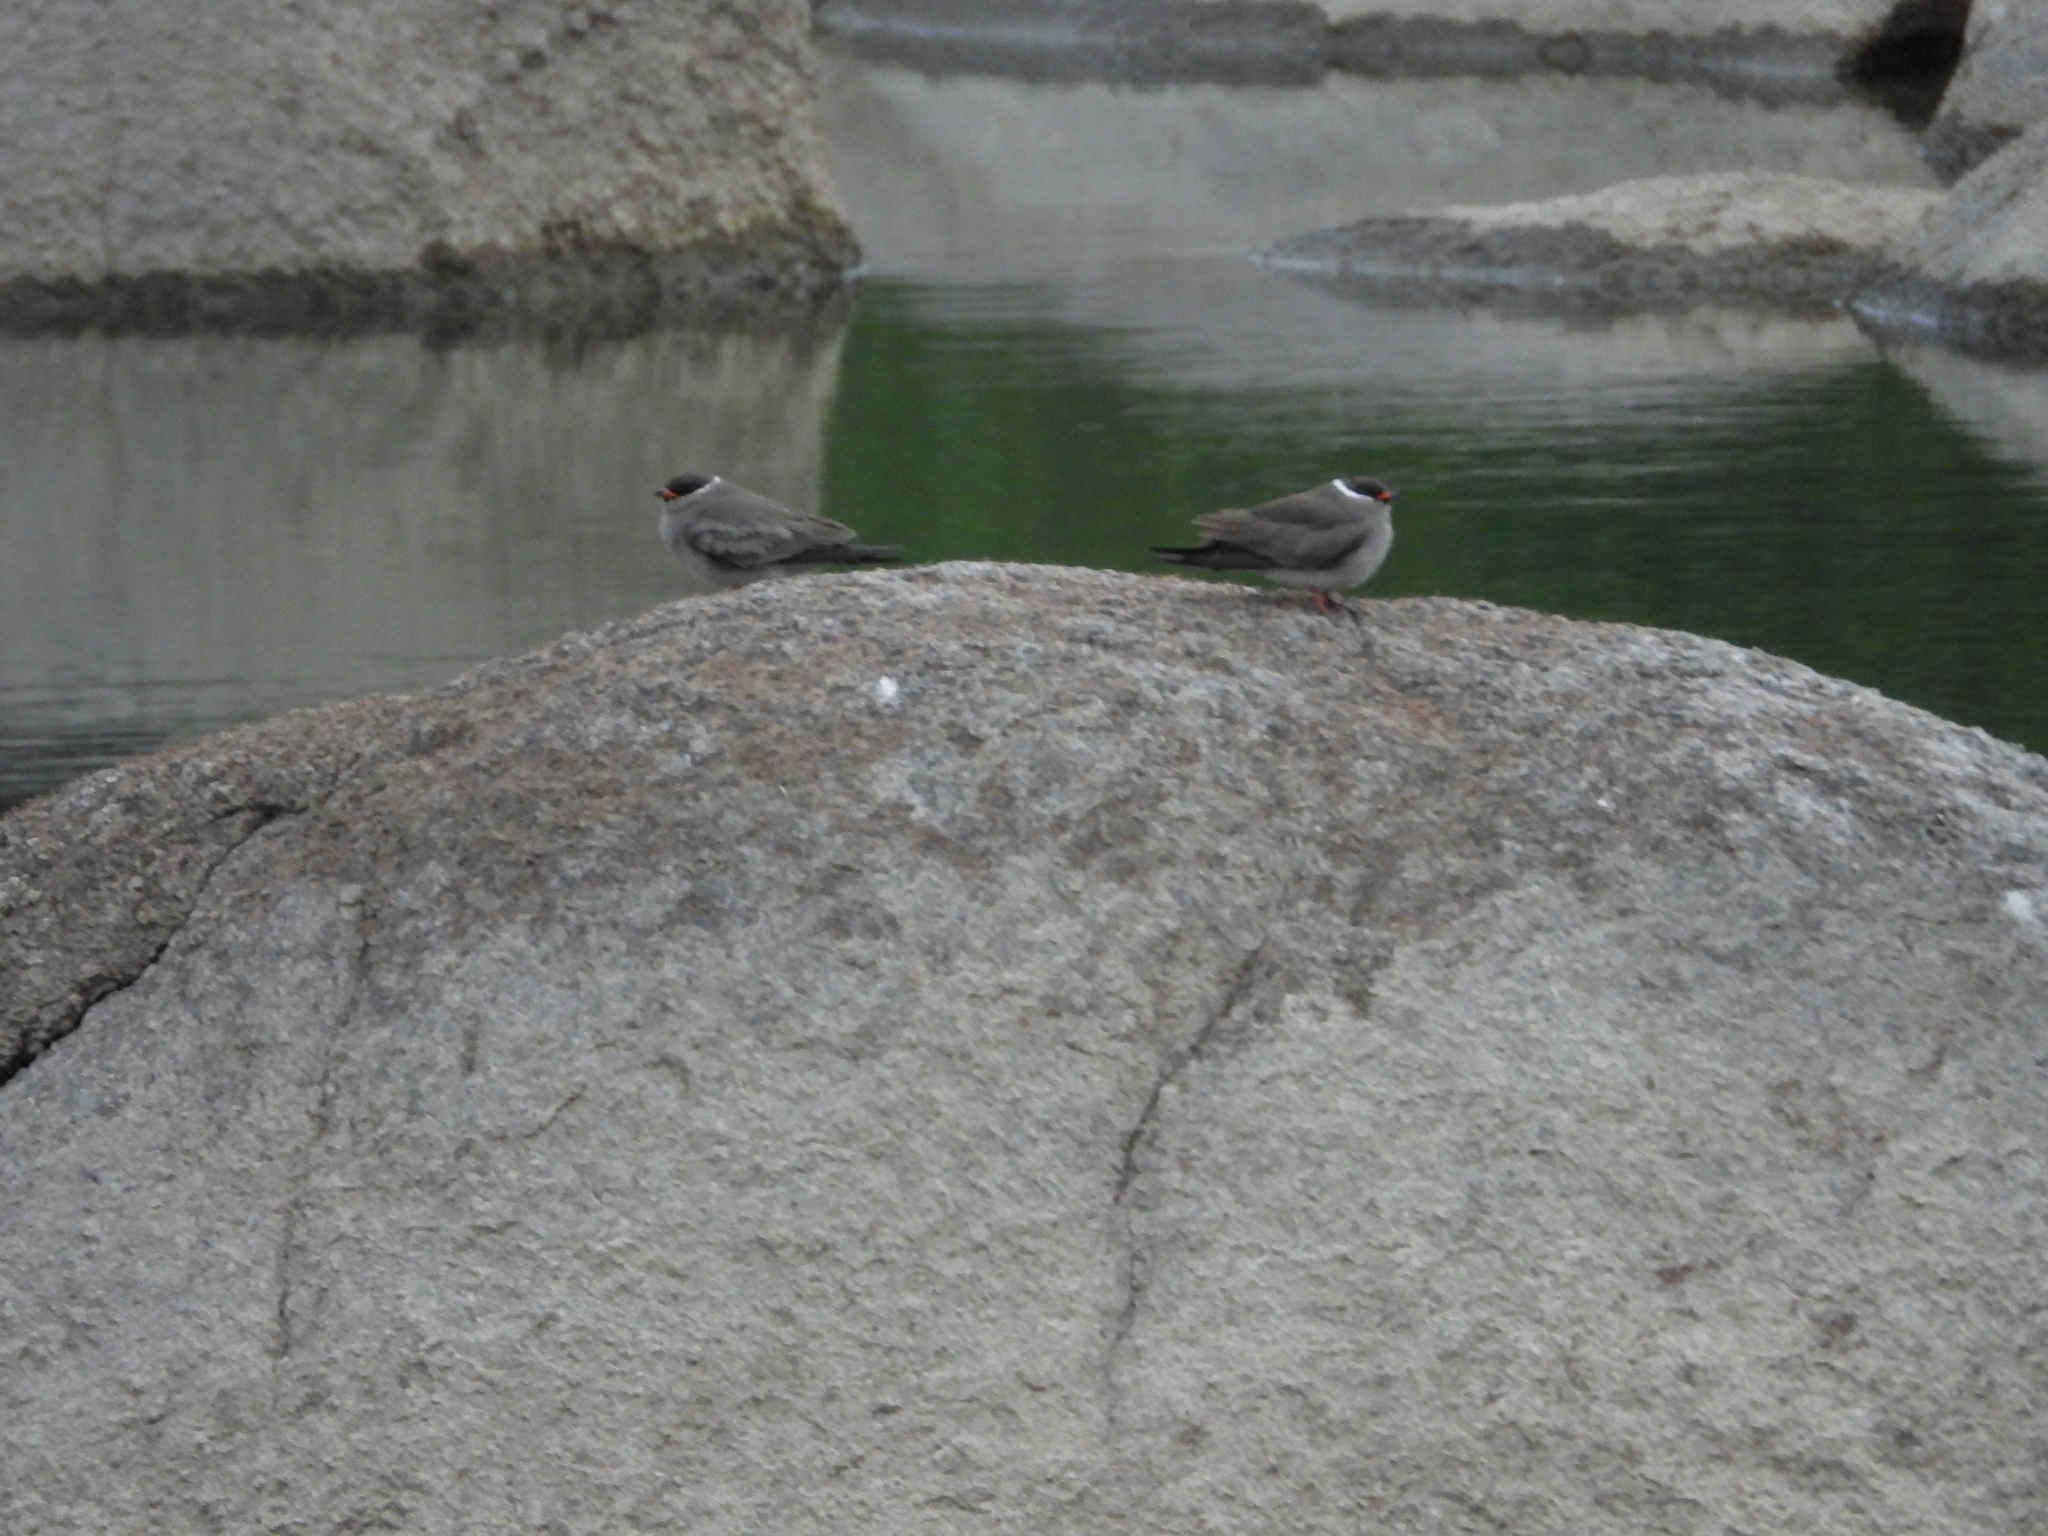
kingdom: Animalia
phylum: Chordata
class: Aves
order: Charadriiformes
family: Glareolidae
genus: Glareola
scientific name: Glareola nuchalis
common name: Rock pratincole
